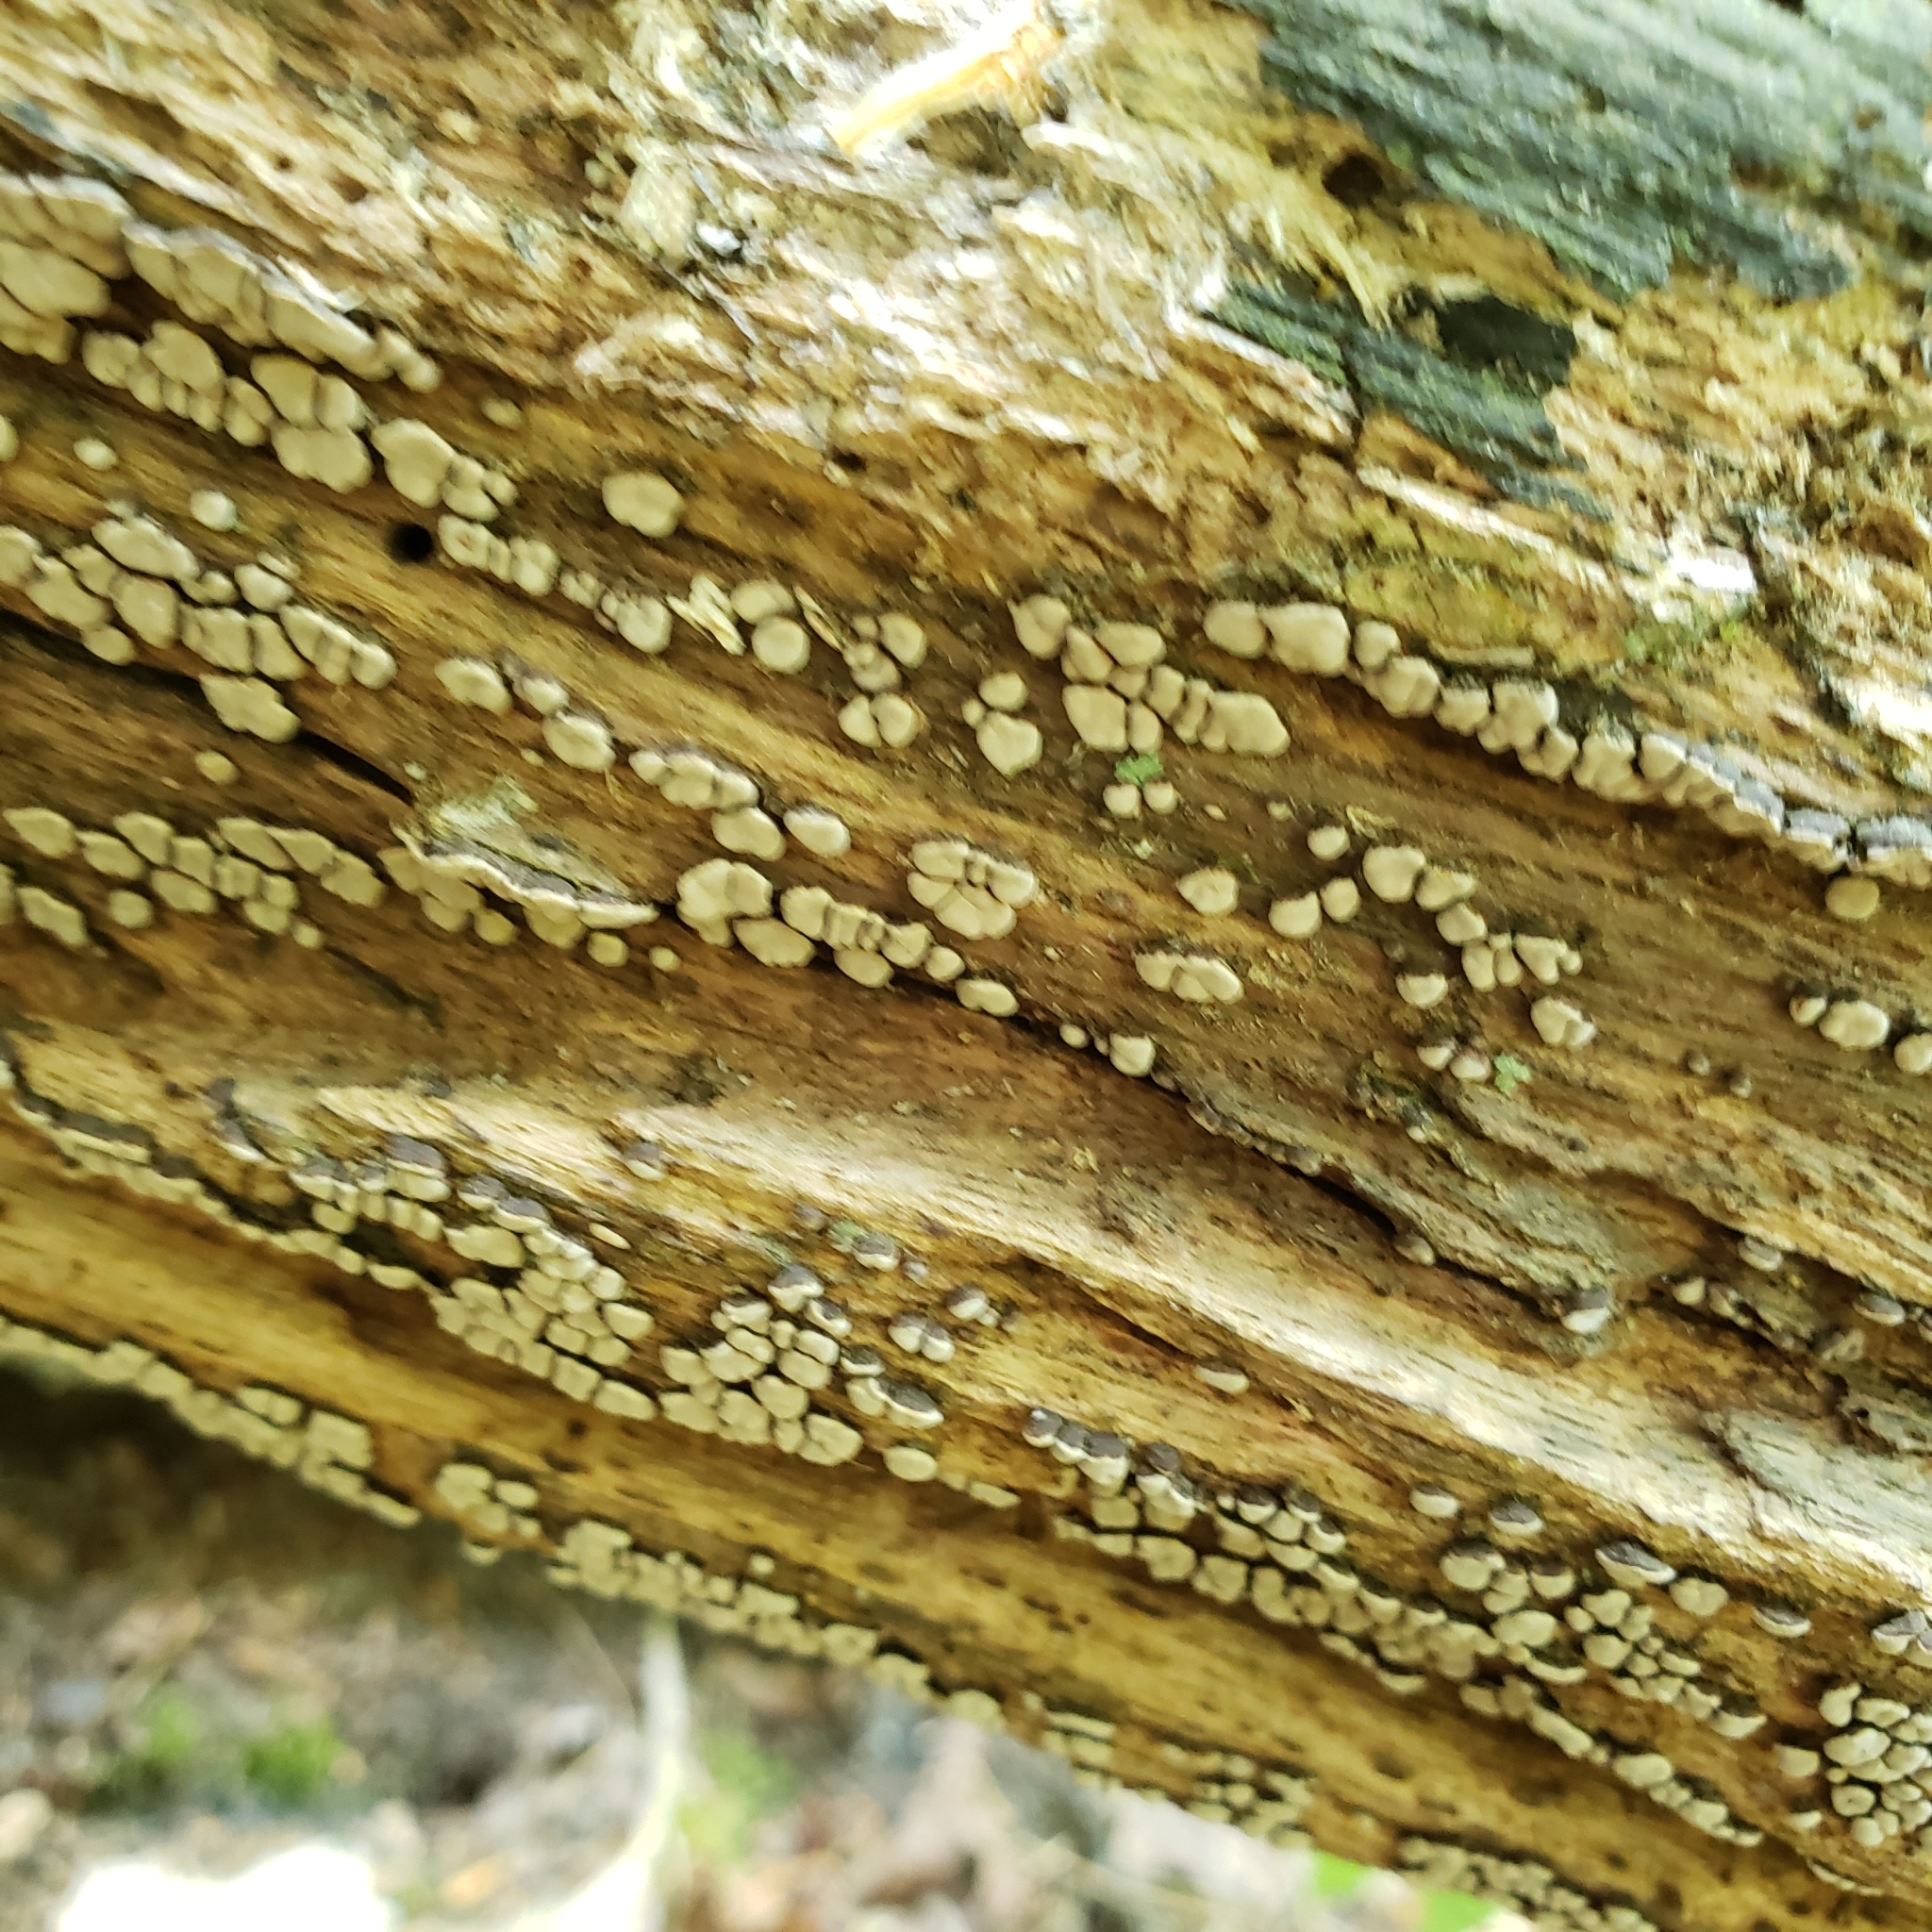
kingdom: Fungi
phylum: Basidiomycota
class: Agaricomycetes
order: Russulales
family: Stereaceae
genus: Xylobolus
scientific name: Xylobolus frustulatus
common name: Ceramic parchment
